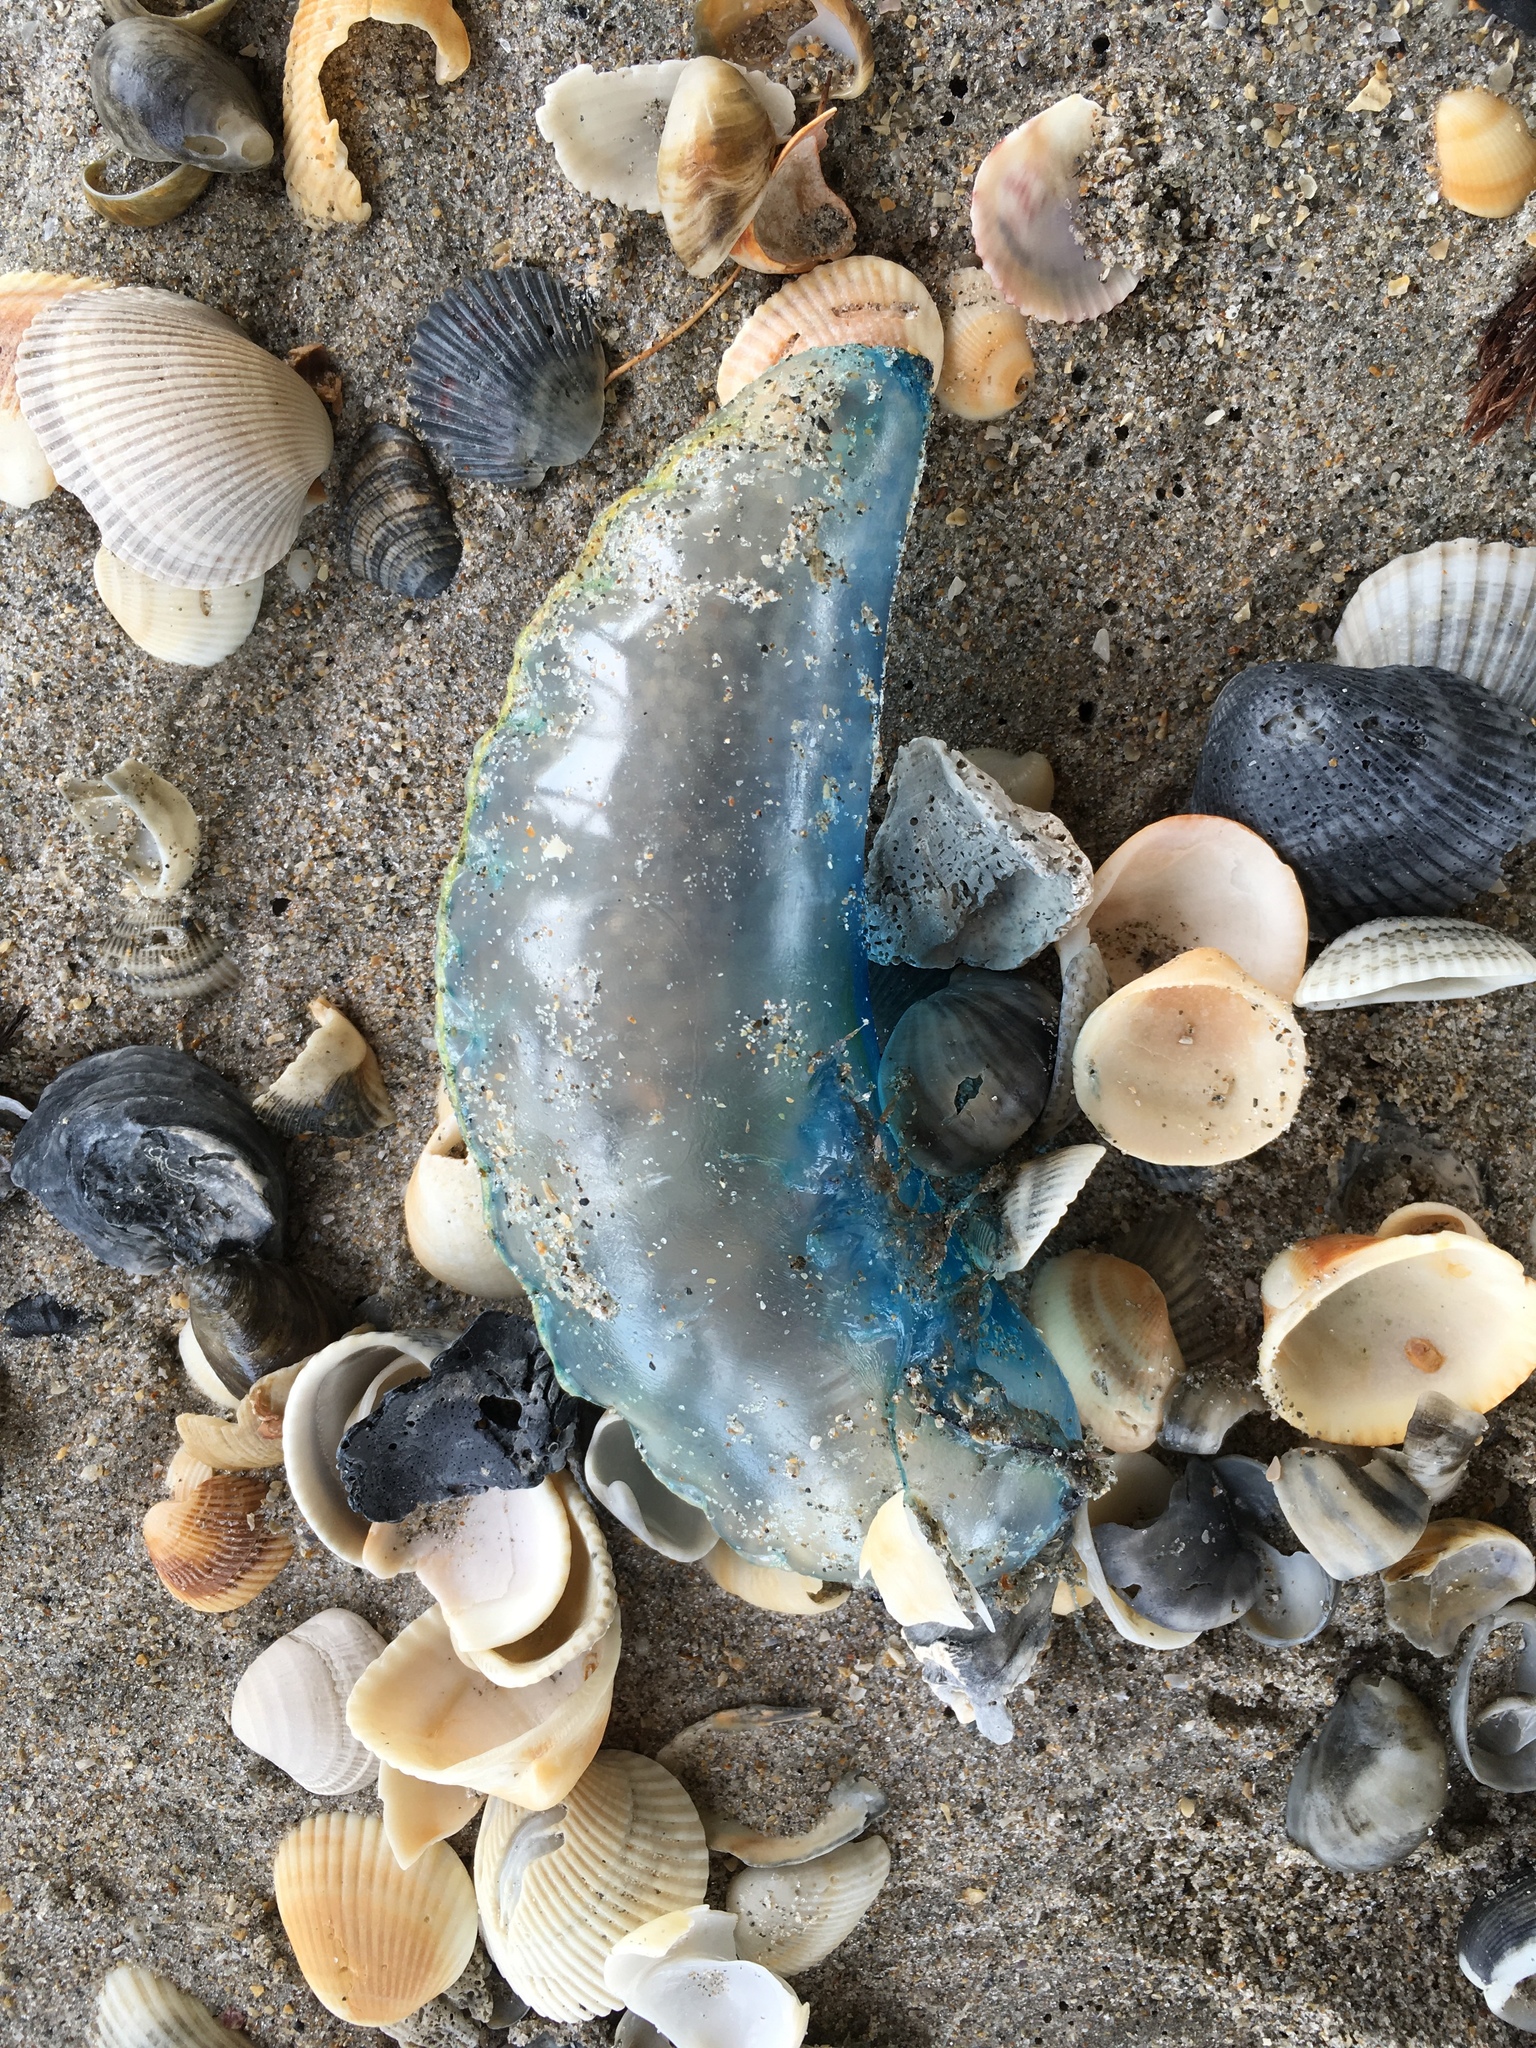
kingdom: Animalia
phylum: Cnidaria
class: Hydrozoa
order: Siphonophorae
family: Physaliidae
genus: Physalia
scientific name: Physalia physalis
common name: Portuguese man-of-war
